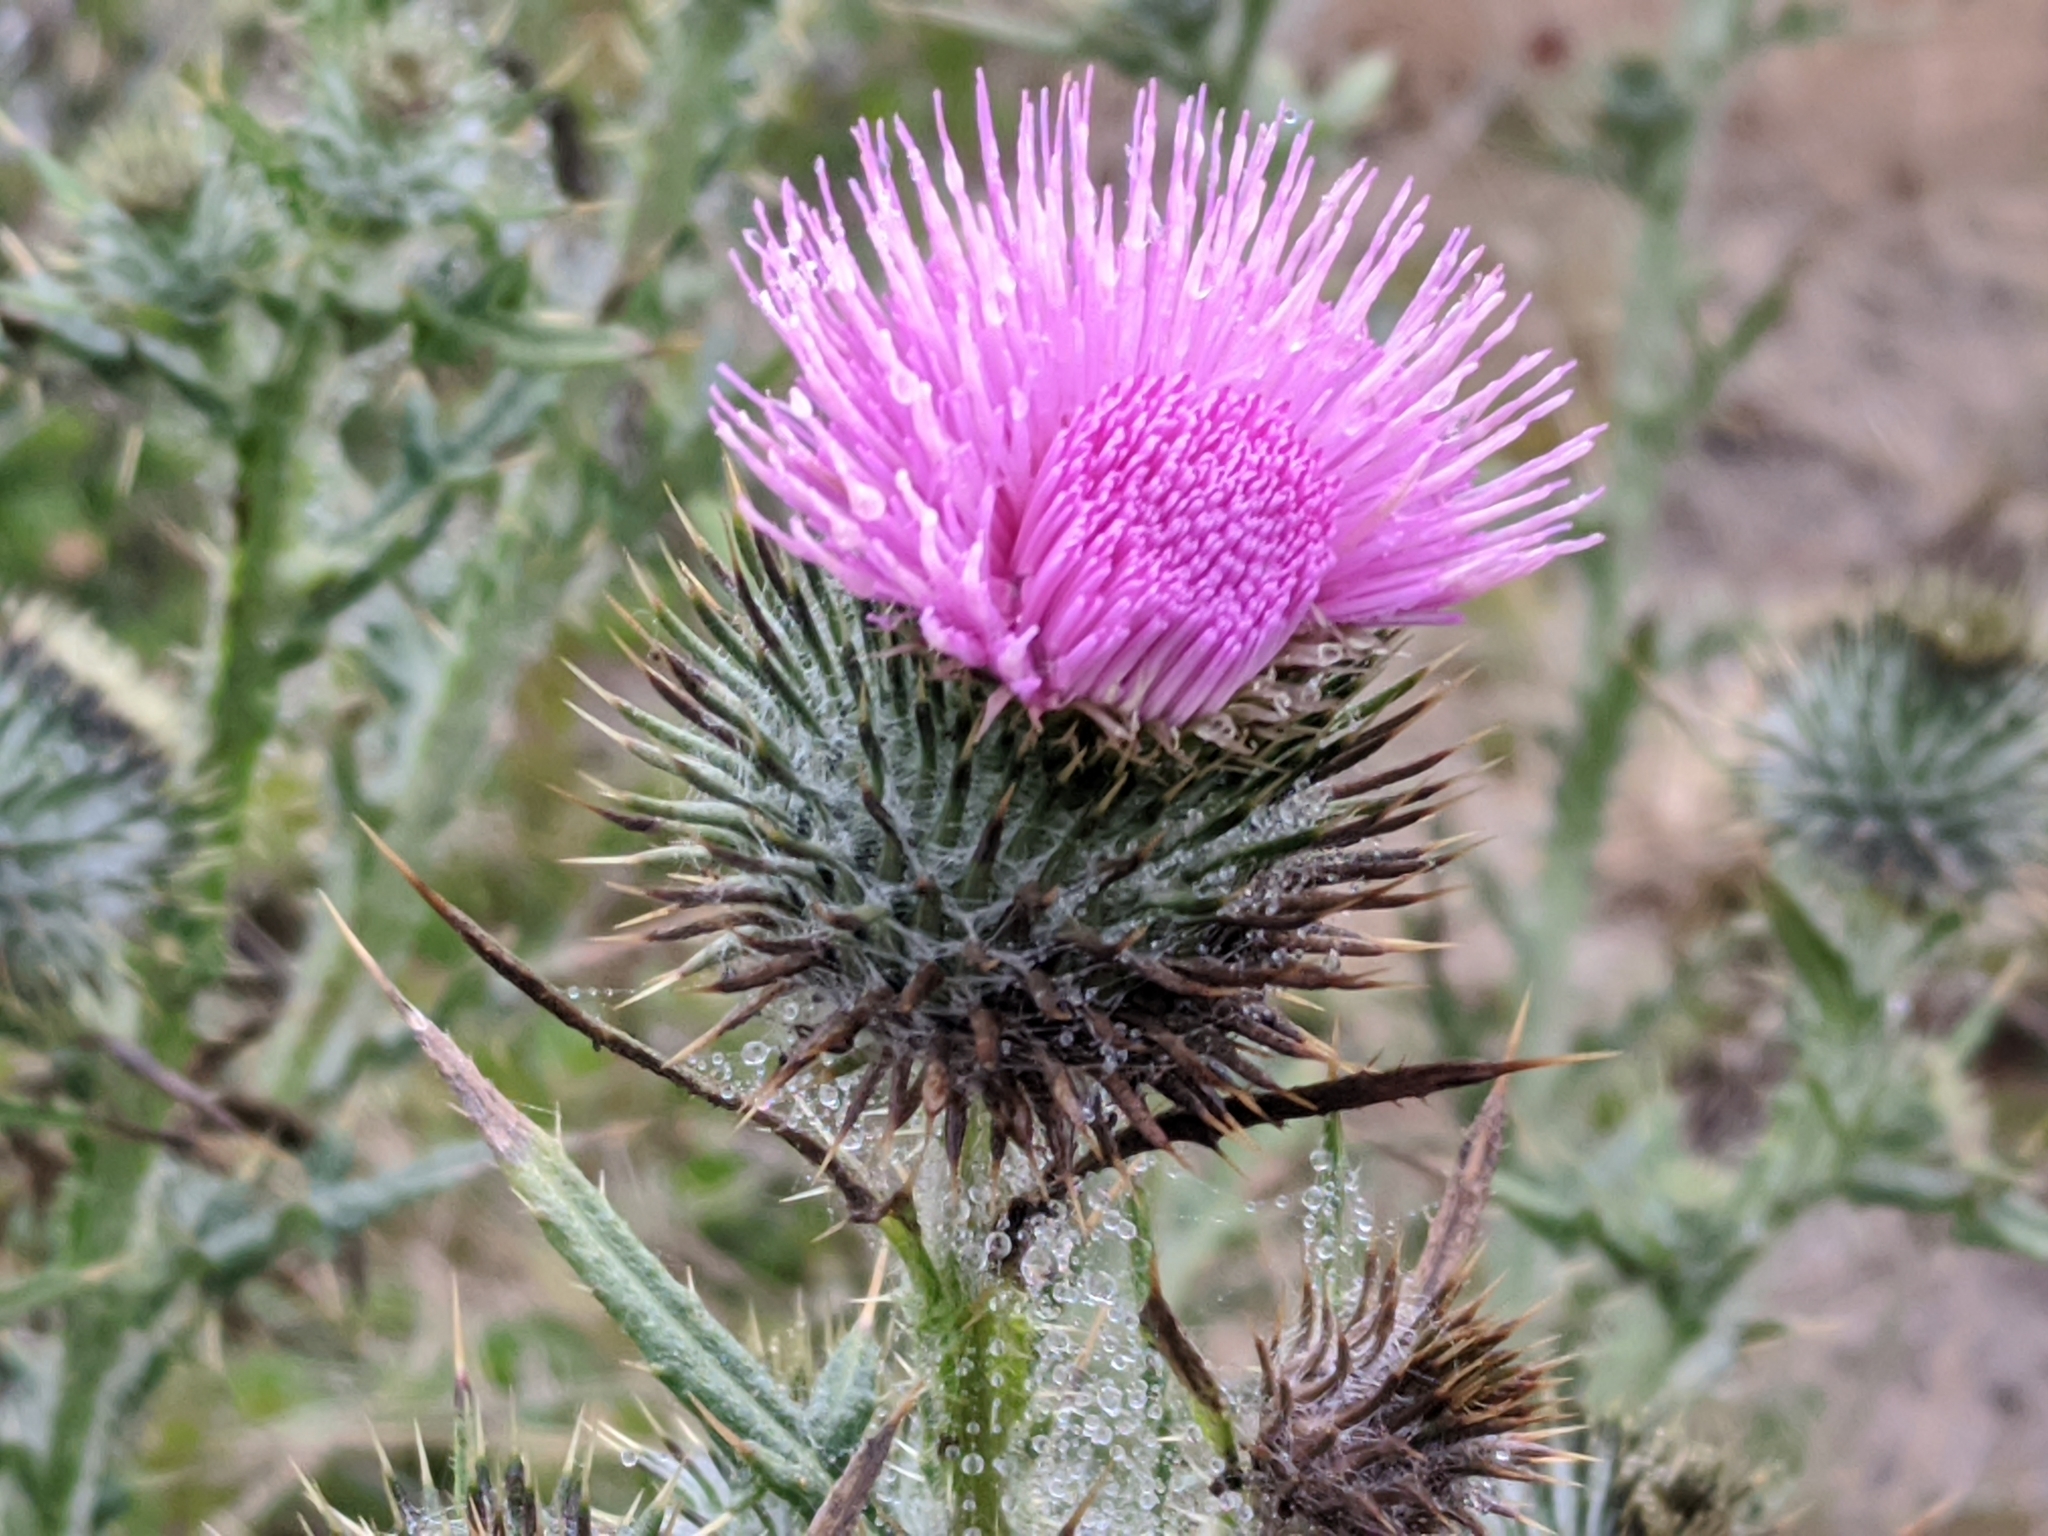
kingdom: Plantae
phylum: Tracheophyta
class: Magnoliopsida
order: Asterales
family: Asteraceae
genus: Cirsium
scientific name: Cirsium vulgare
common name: Bull thistle
